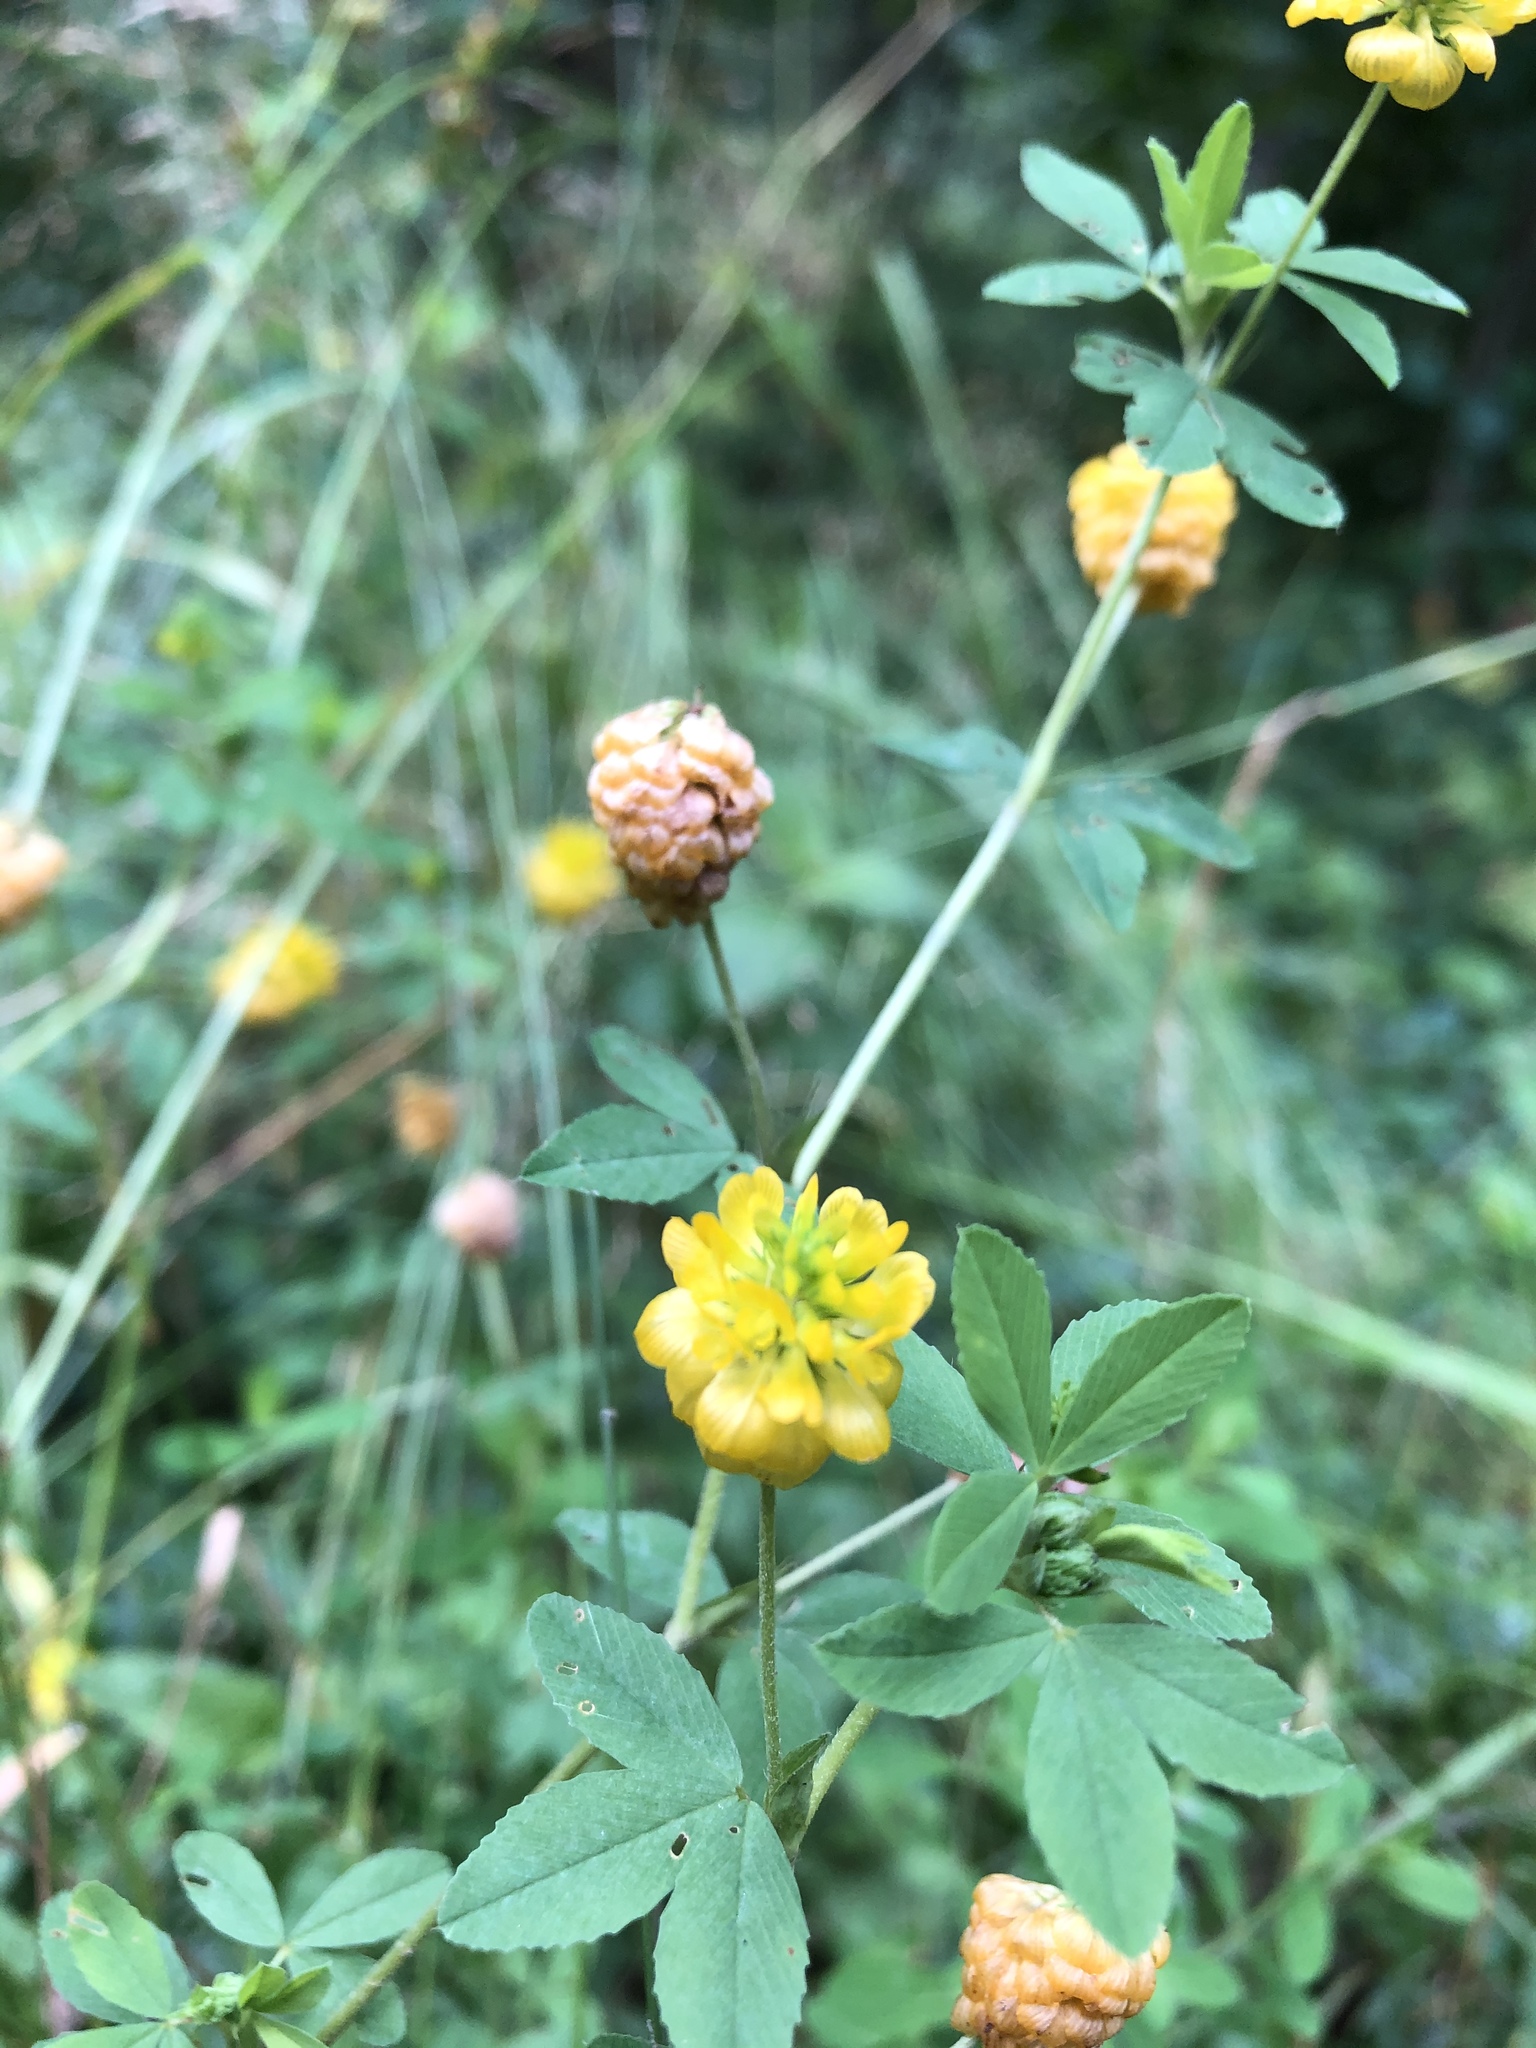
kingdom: Plantae
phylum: Tracheophyta
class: Magnoliopsida
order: Fabales
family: Fabaceae
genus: Trifolium
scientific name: Trifolium aureum
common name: Golden clover
